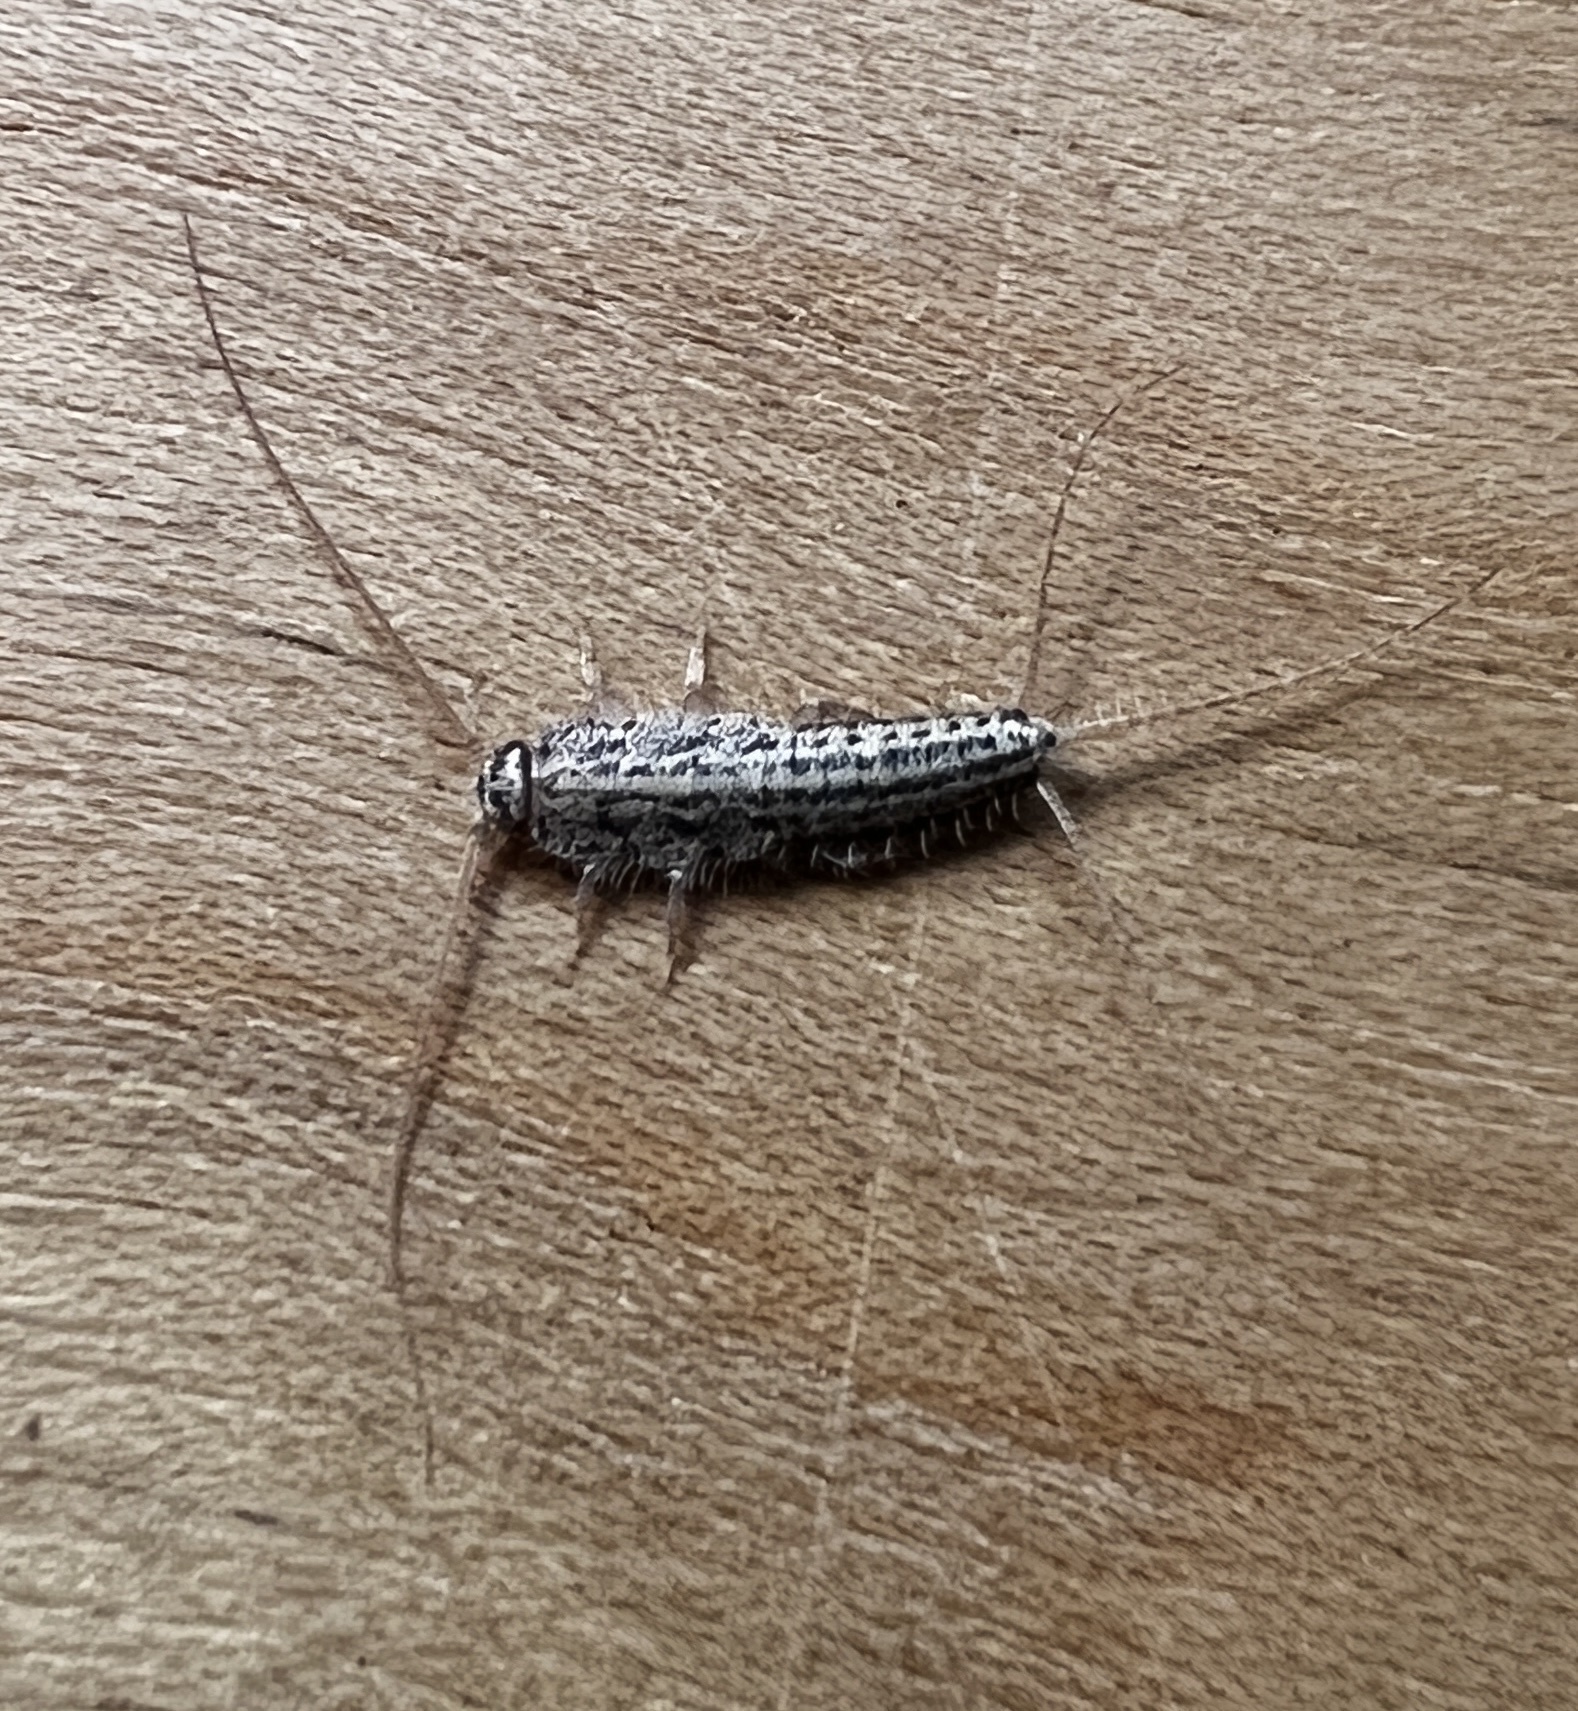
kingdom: Animalia
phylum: Arthropoda
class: Insecta
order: Zygentoma
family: Lepismatidae
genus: Ctenolepisma
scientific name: Ctenolepisma lineata
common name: Four-lined silverfish
